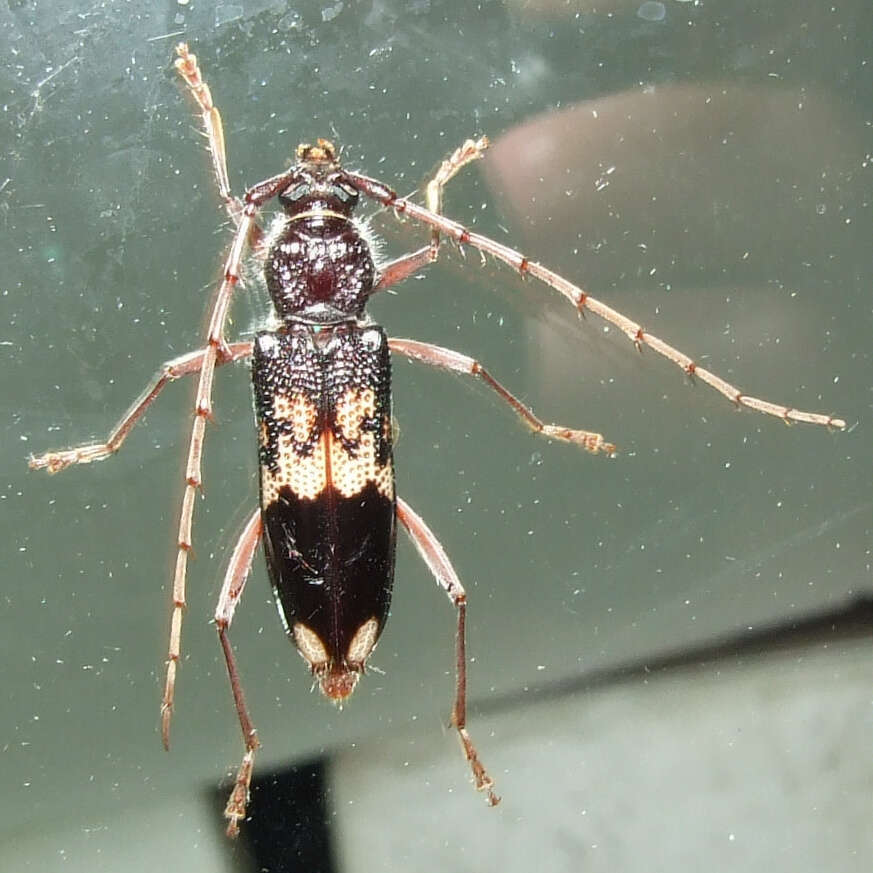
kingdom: Animalia
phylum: Arthropoda
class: Insecta
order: Coleoptera
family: Cerambycidae
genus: Phoracantha
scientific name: Phoracantha semipunctata
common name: Eucalyptus longhorn borer
